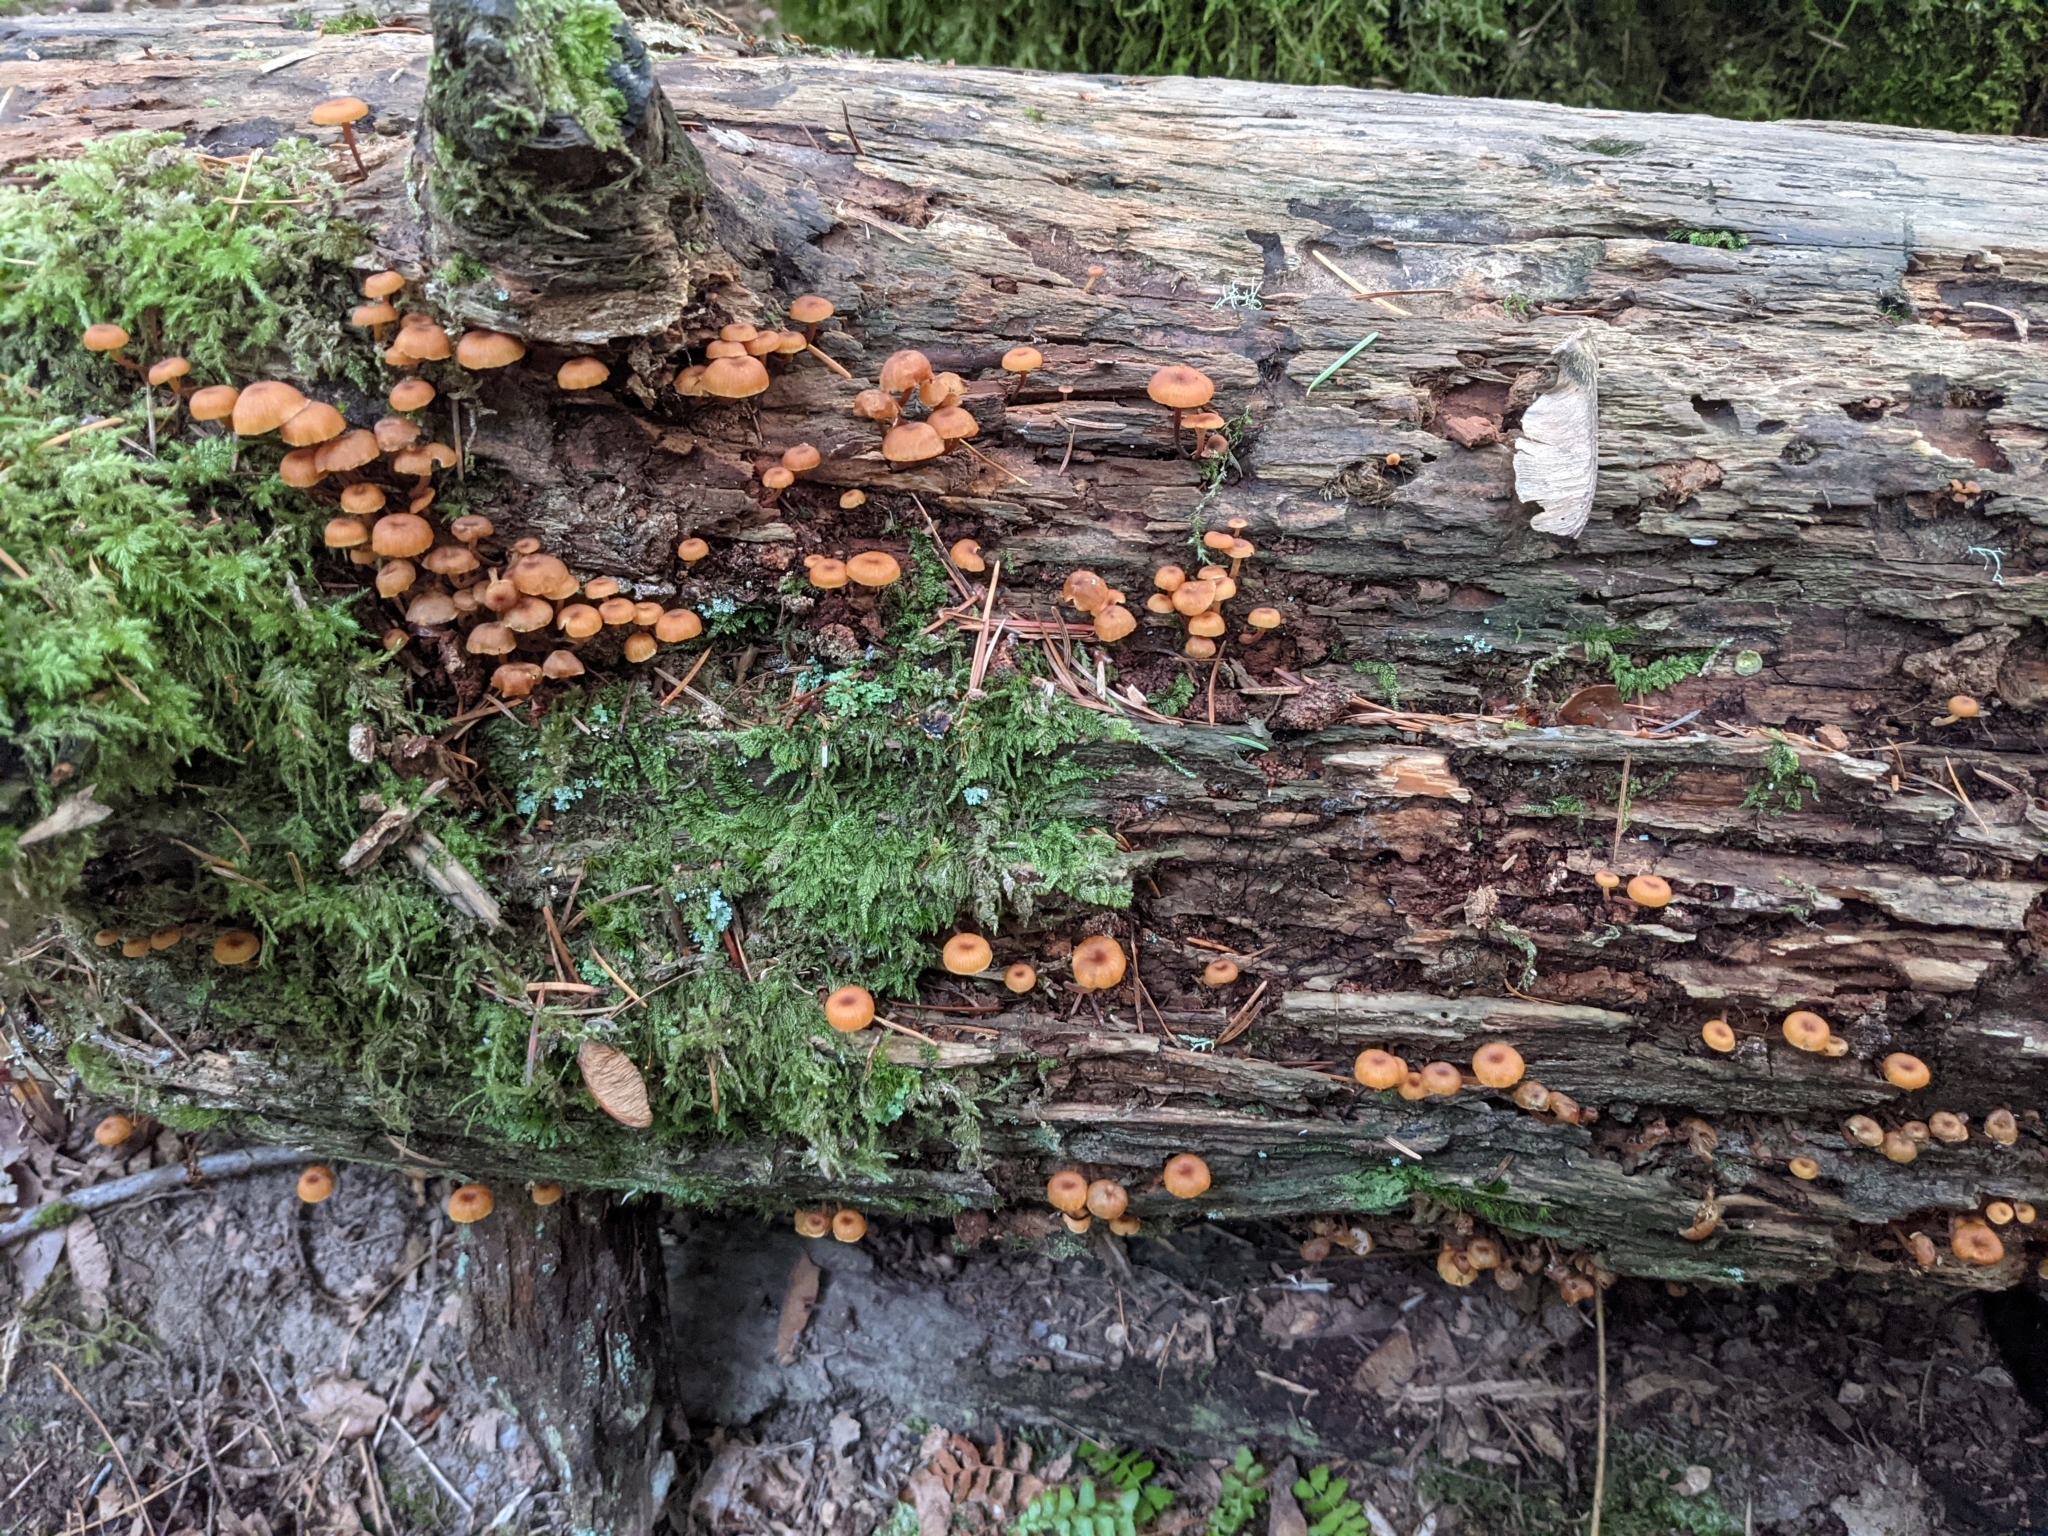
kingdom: Fungi
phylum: Basidiomycota
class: Agaricomycetes
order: Agaricales
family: Mycenaceae
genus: Xeromphalina
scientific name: Xeromphalina
